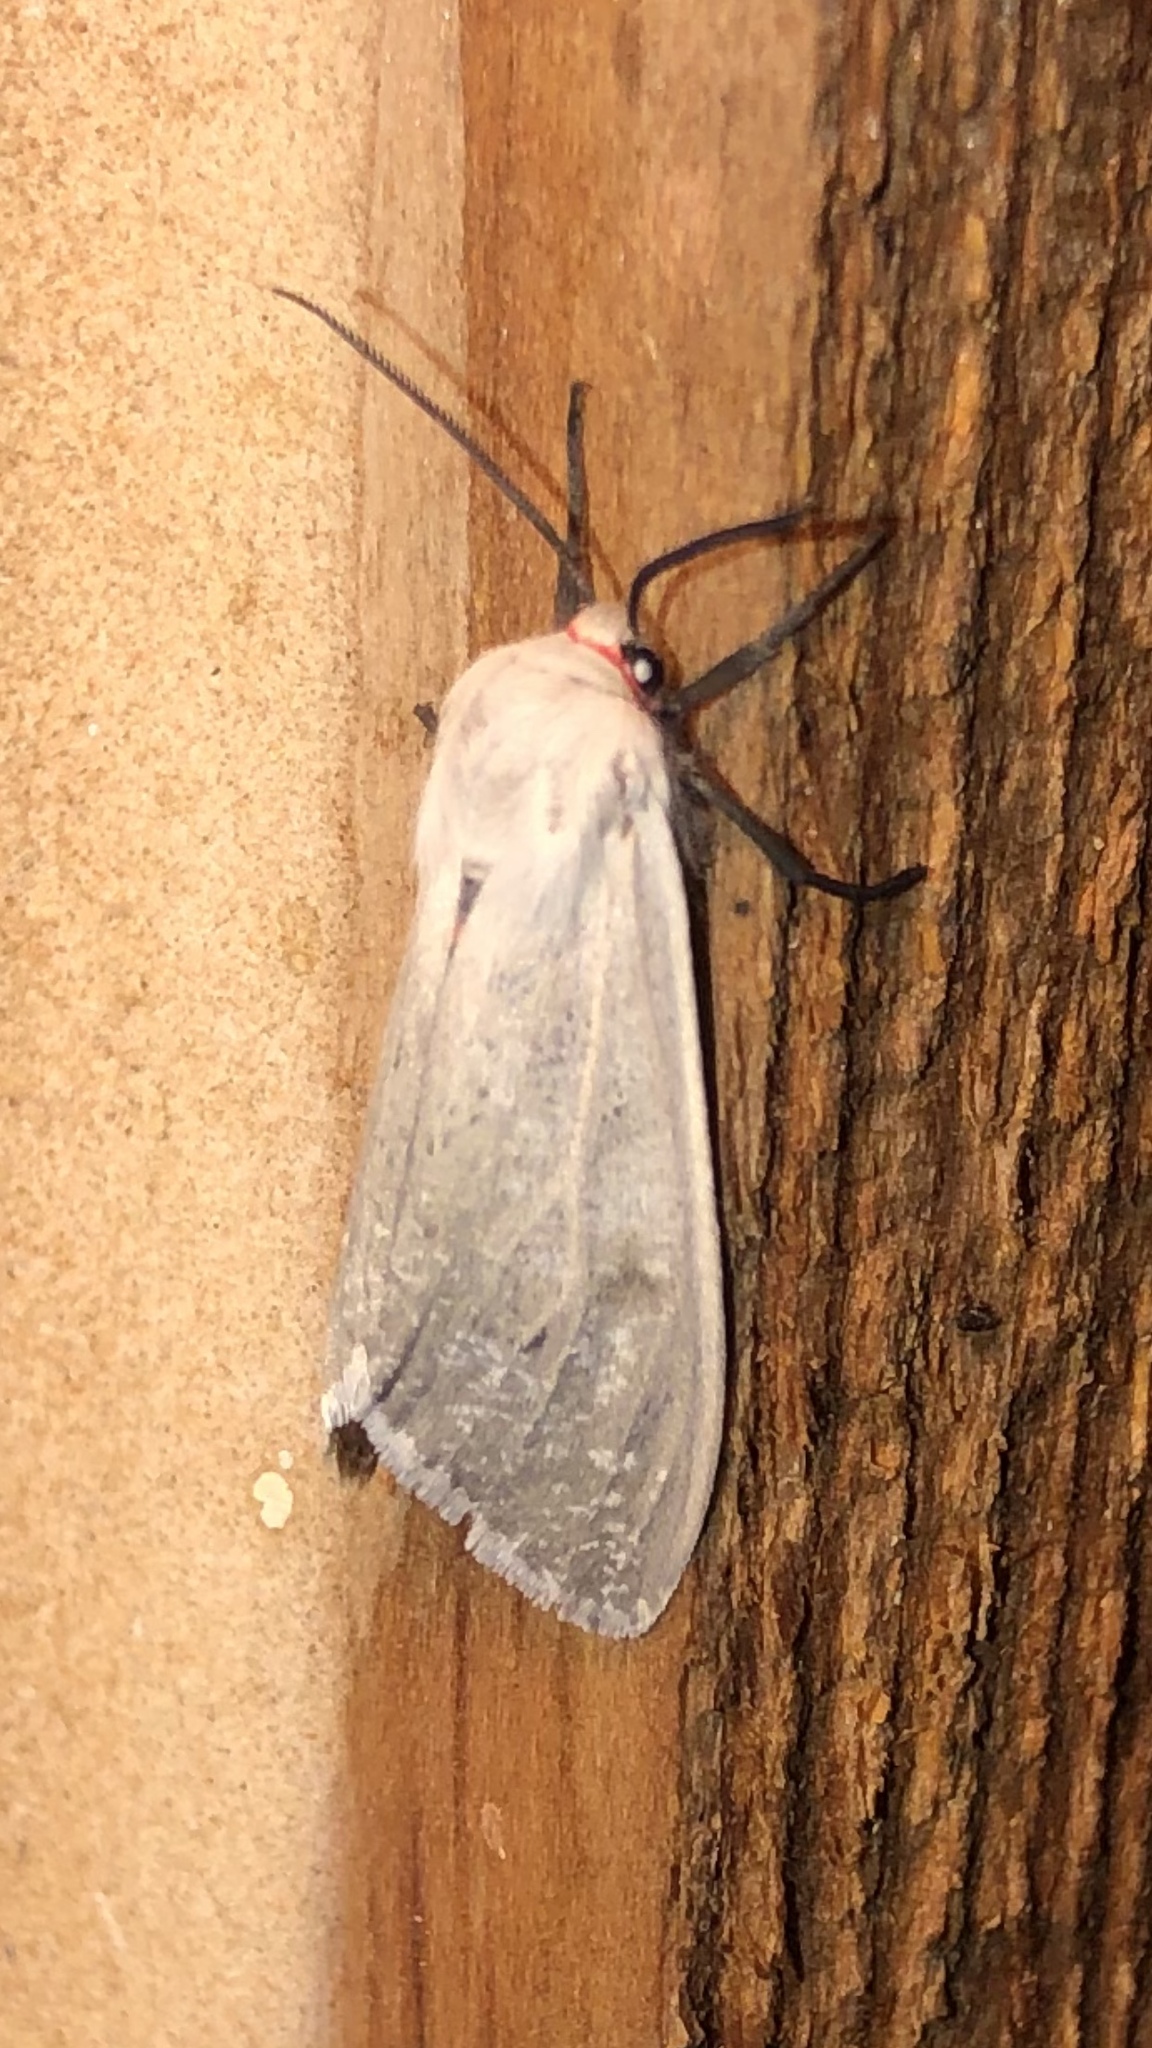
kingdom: Animalia
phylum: Arthropoda
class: Insecta
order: Lepidoptera
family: Erebidae
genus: Euchaetes
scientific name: Euchaetes bolteri
